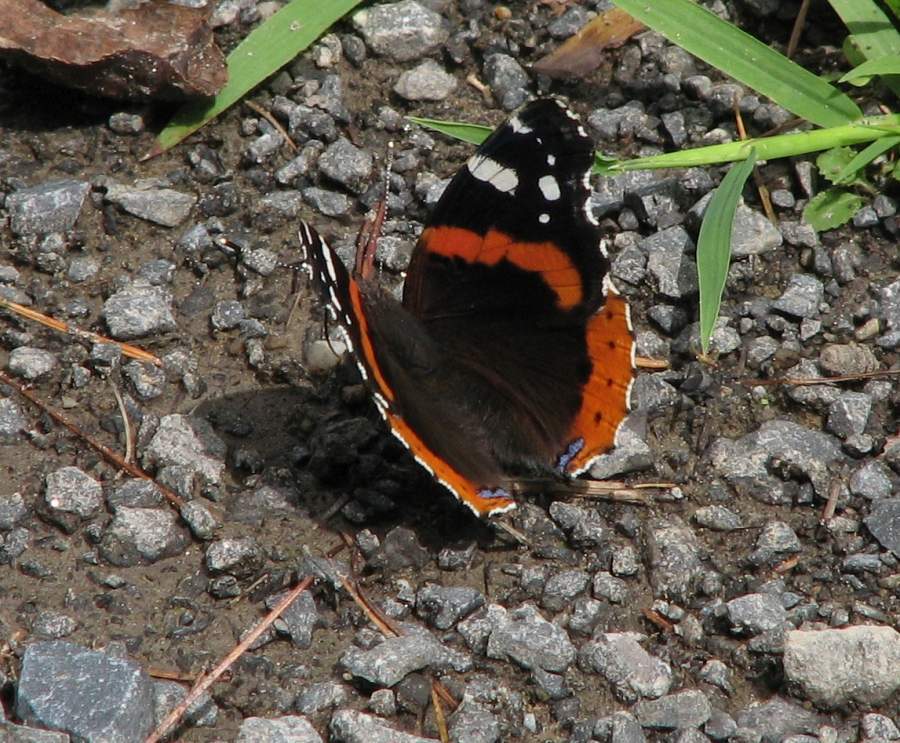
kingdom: Animalia
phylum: Arthropoda
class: Insecta
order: Lepidoptera
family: Nymphalidae
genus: Vanessa
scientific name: Vanessa atalanta
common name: Red admiral
